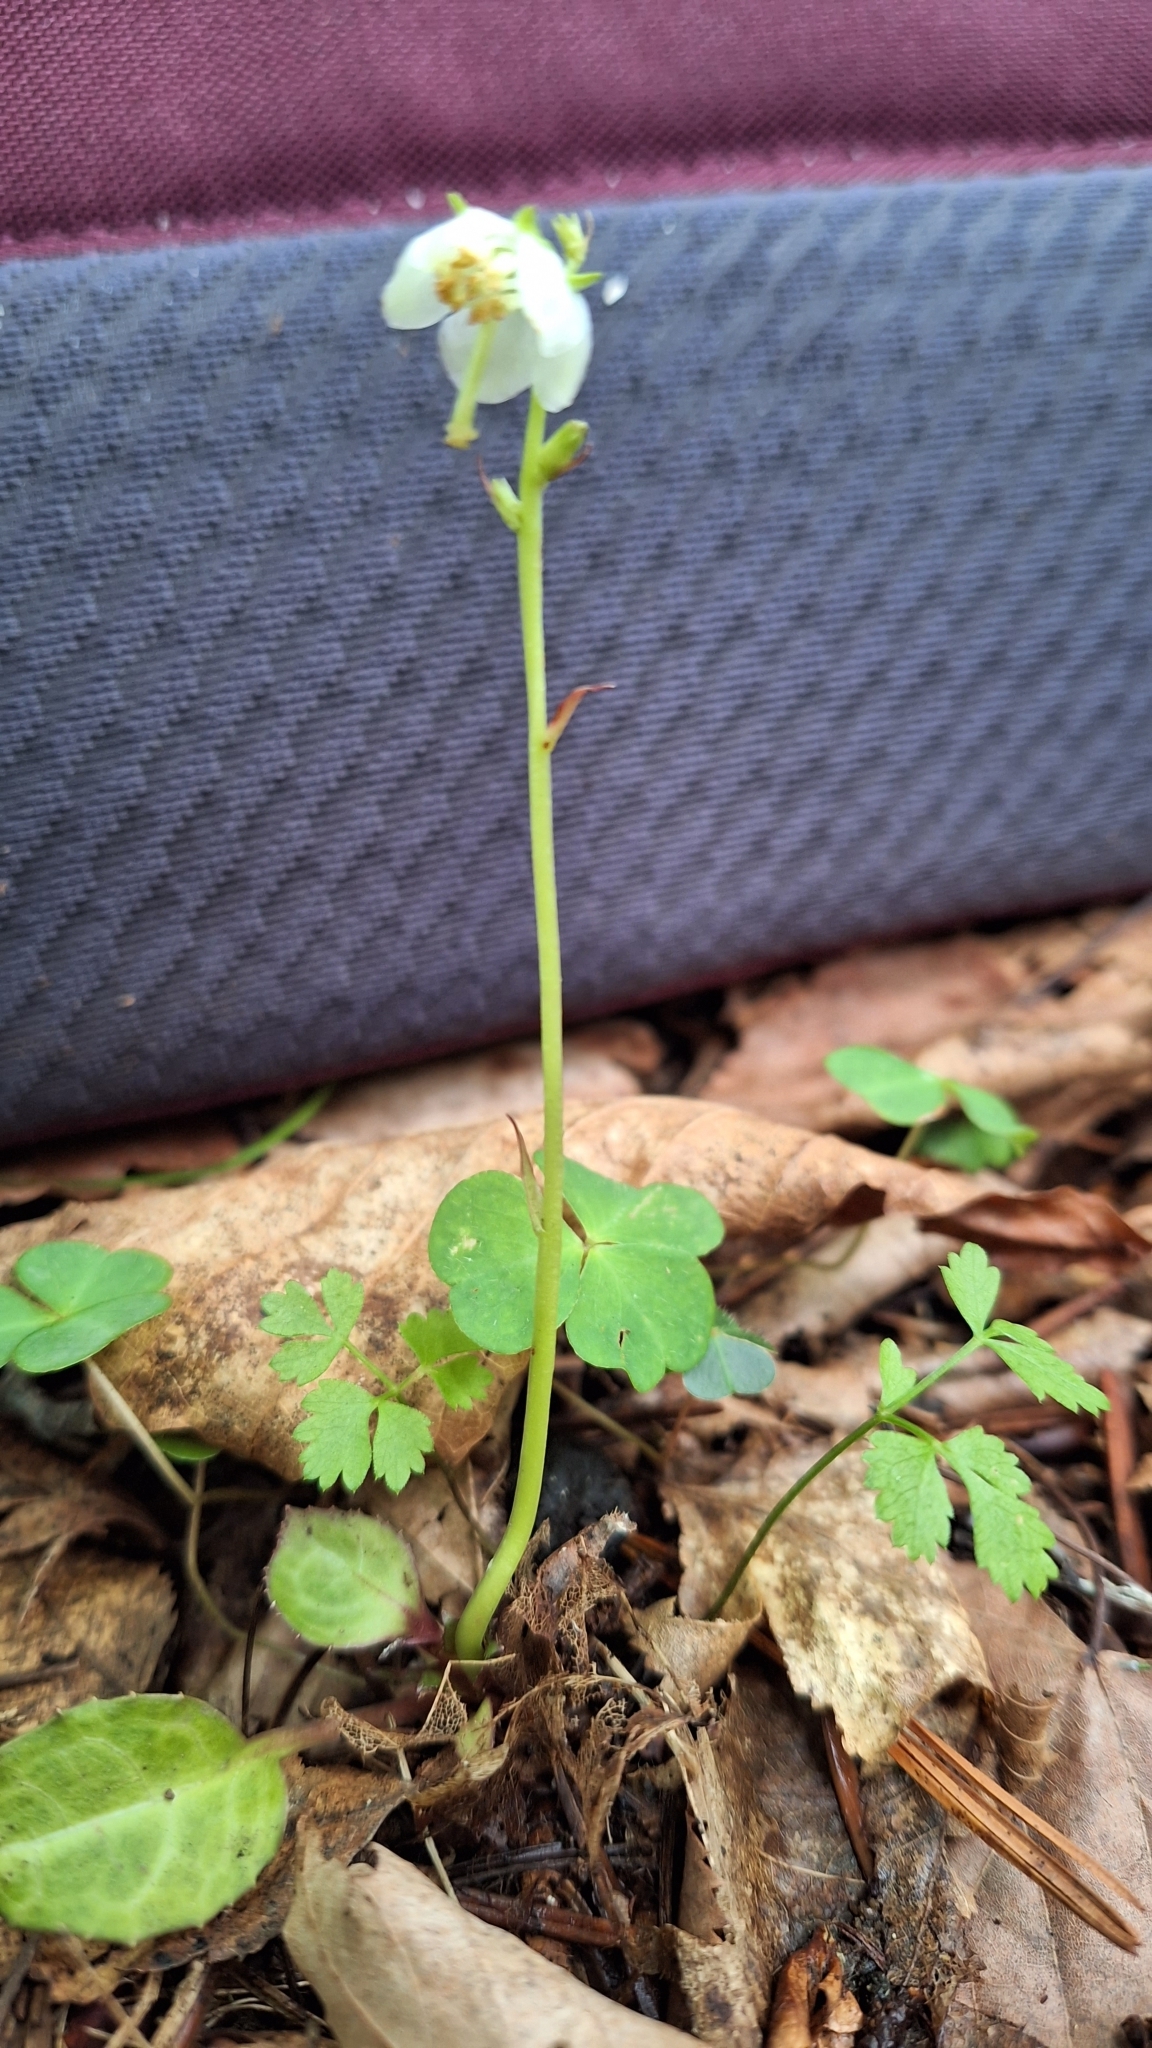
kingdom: Plantae
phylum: Tracheophyta
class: Magnoliopsida
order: Ericales
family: Ericaceae
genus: Pyrola
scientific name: Pyrola japonica
